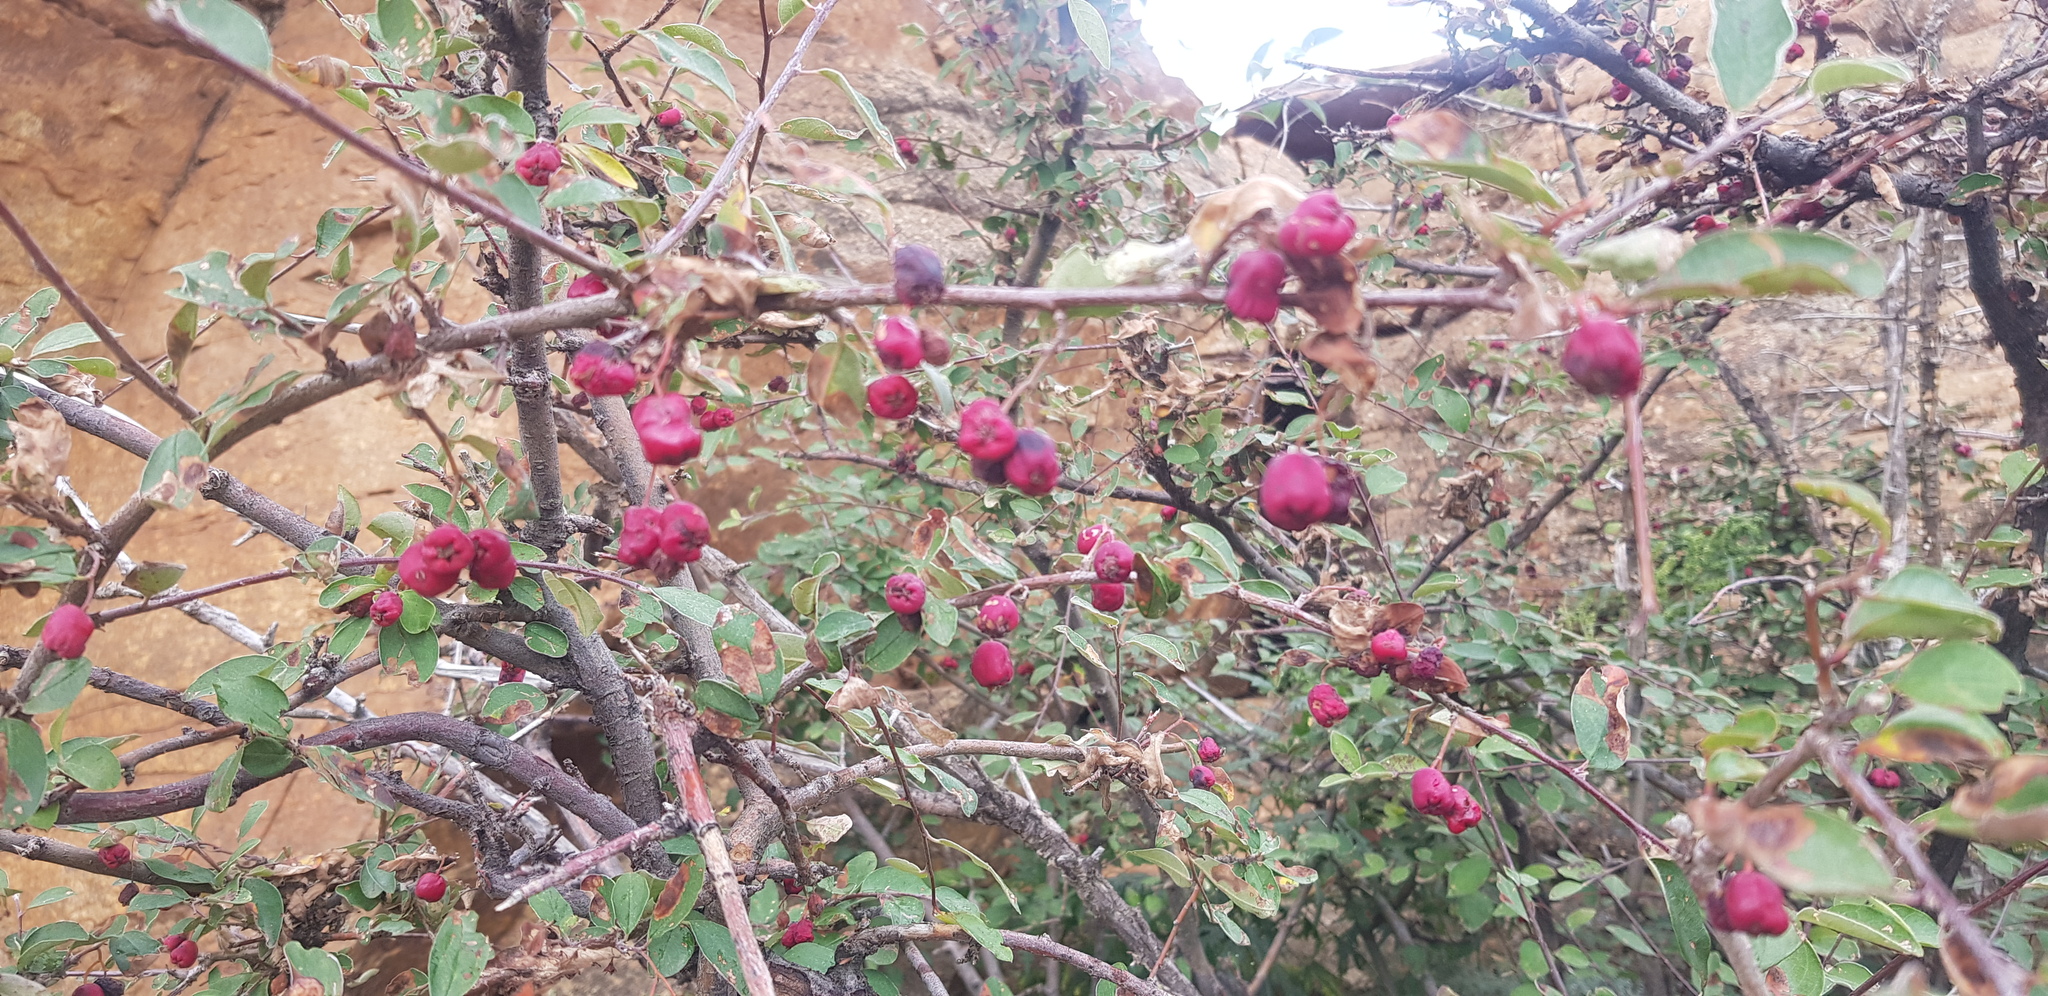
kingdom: Plantae
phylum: Tracheophyta
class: Magnoliopsida
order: Rosales
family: Rosaceae
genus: Cotoneaster
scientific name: Cotoneaster mongolicus
